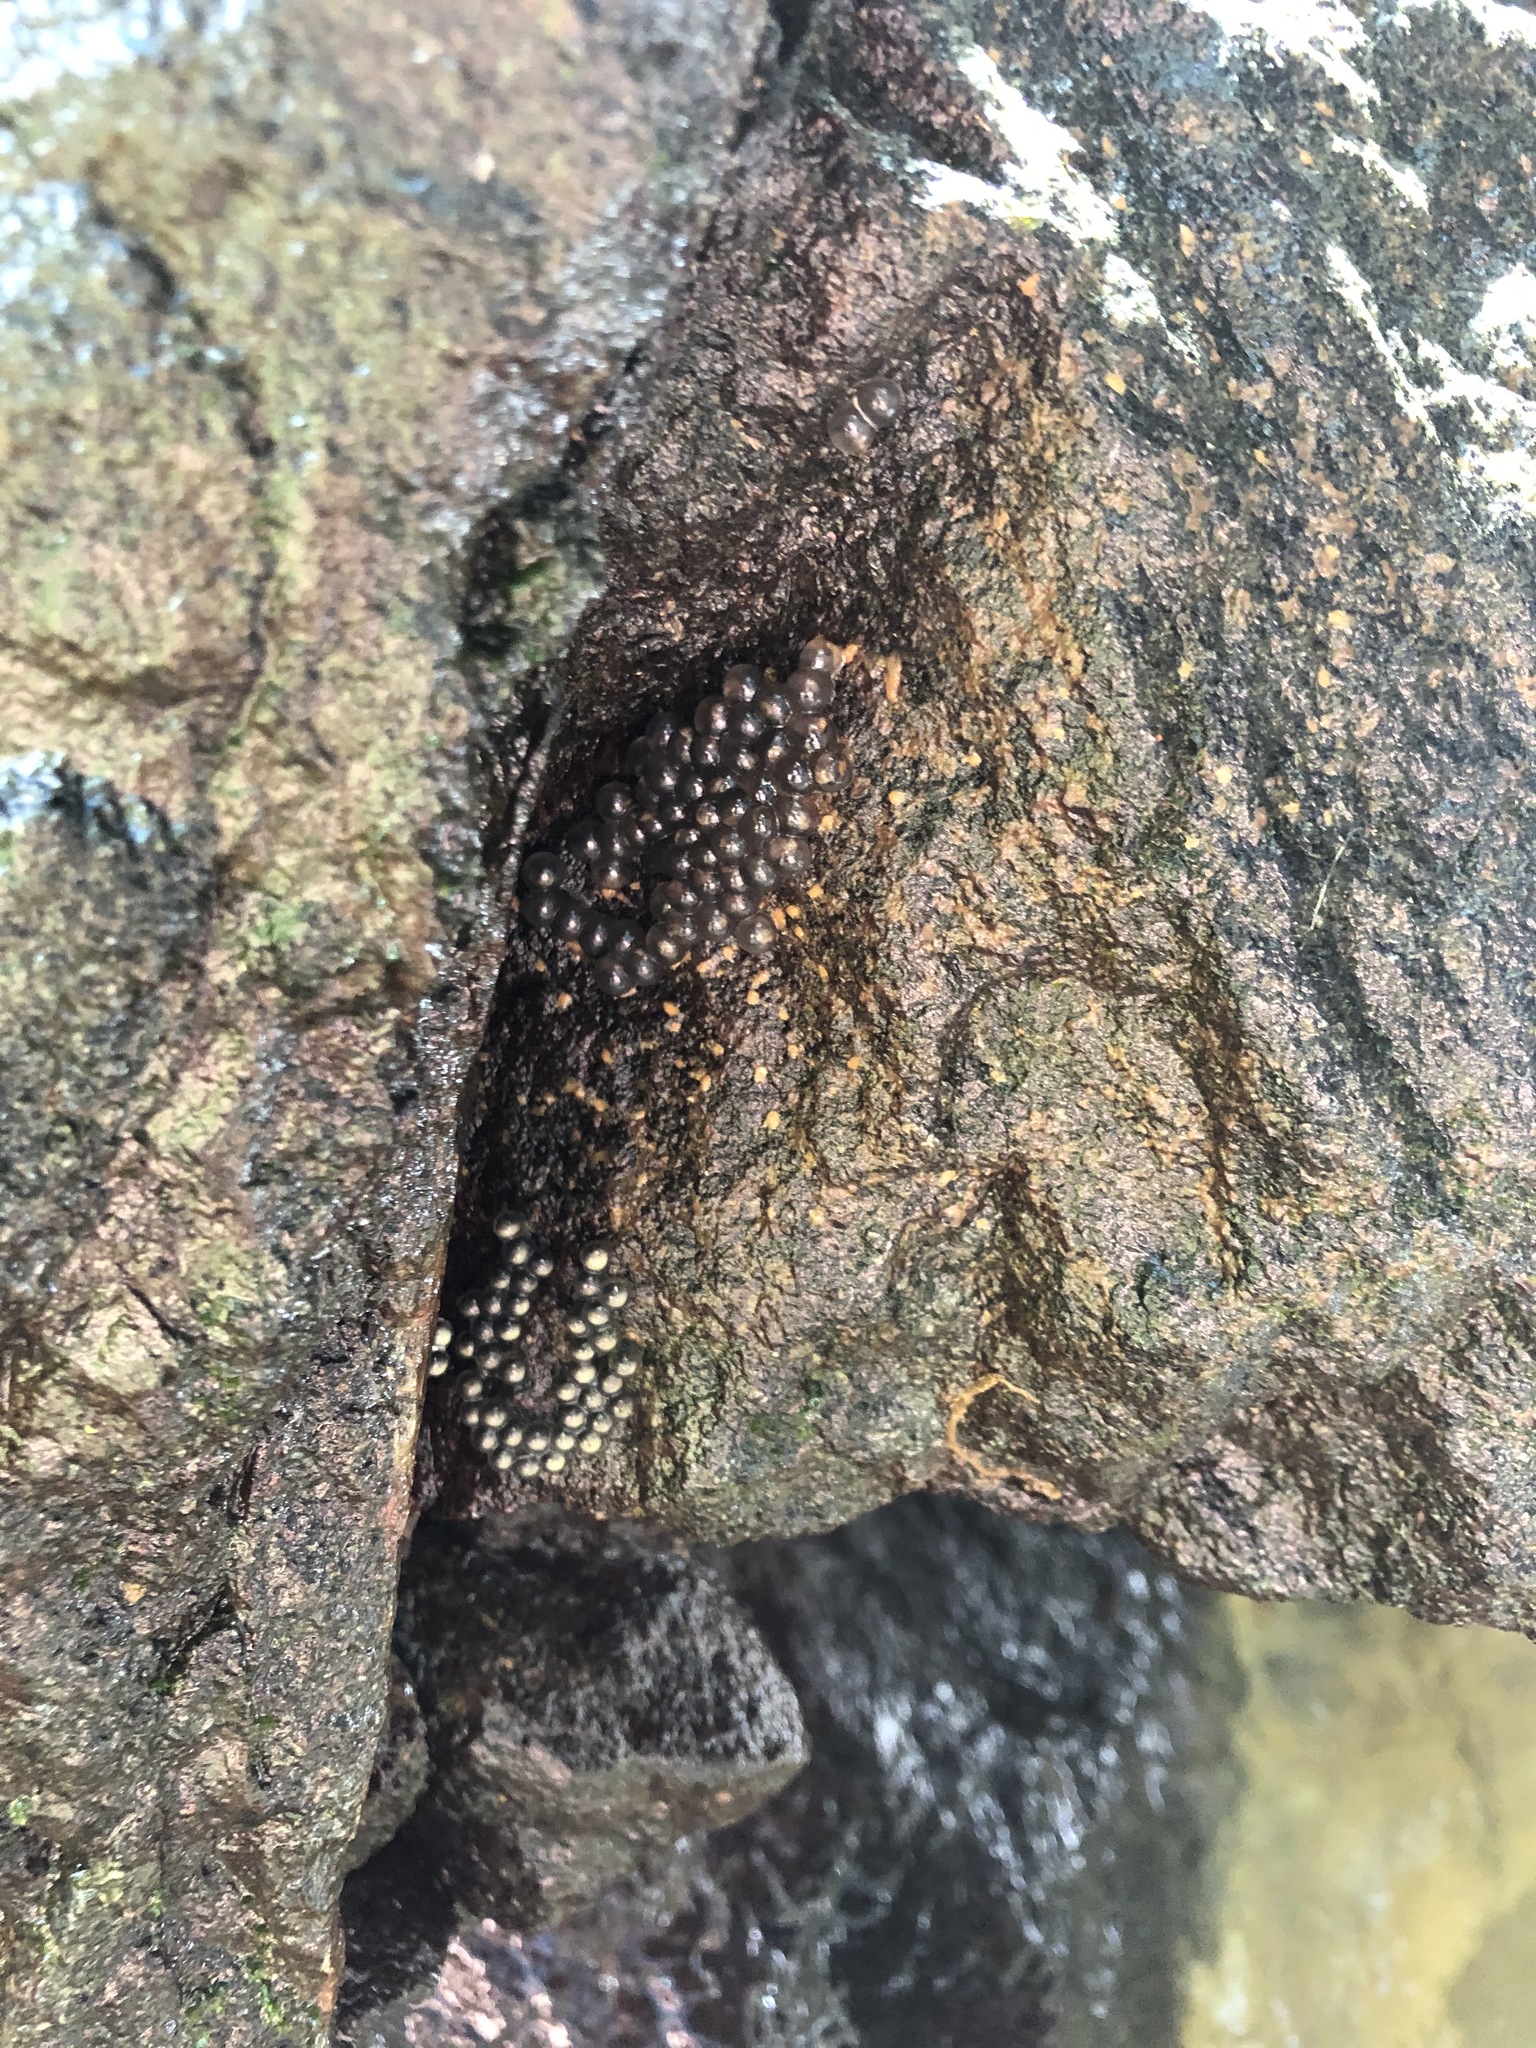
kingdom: Animalia
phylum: Chordata
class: Amphibia
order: Anura
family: Centrolenidae
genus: Sachatamia
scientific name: Sachatamia albomaculata
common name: Rana de cristal de cascada
